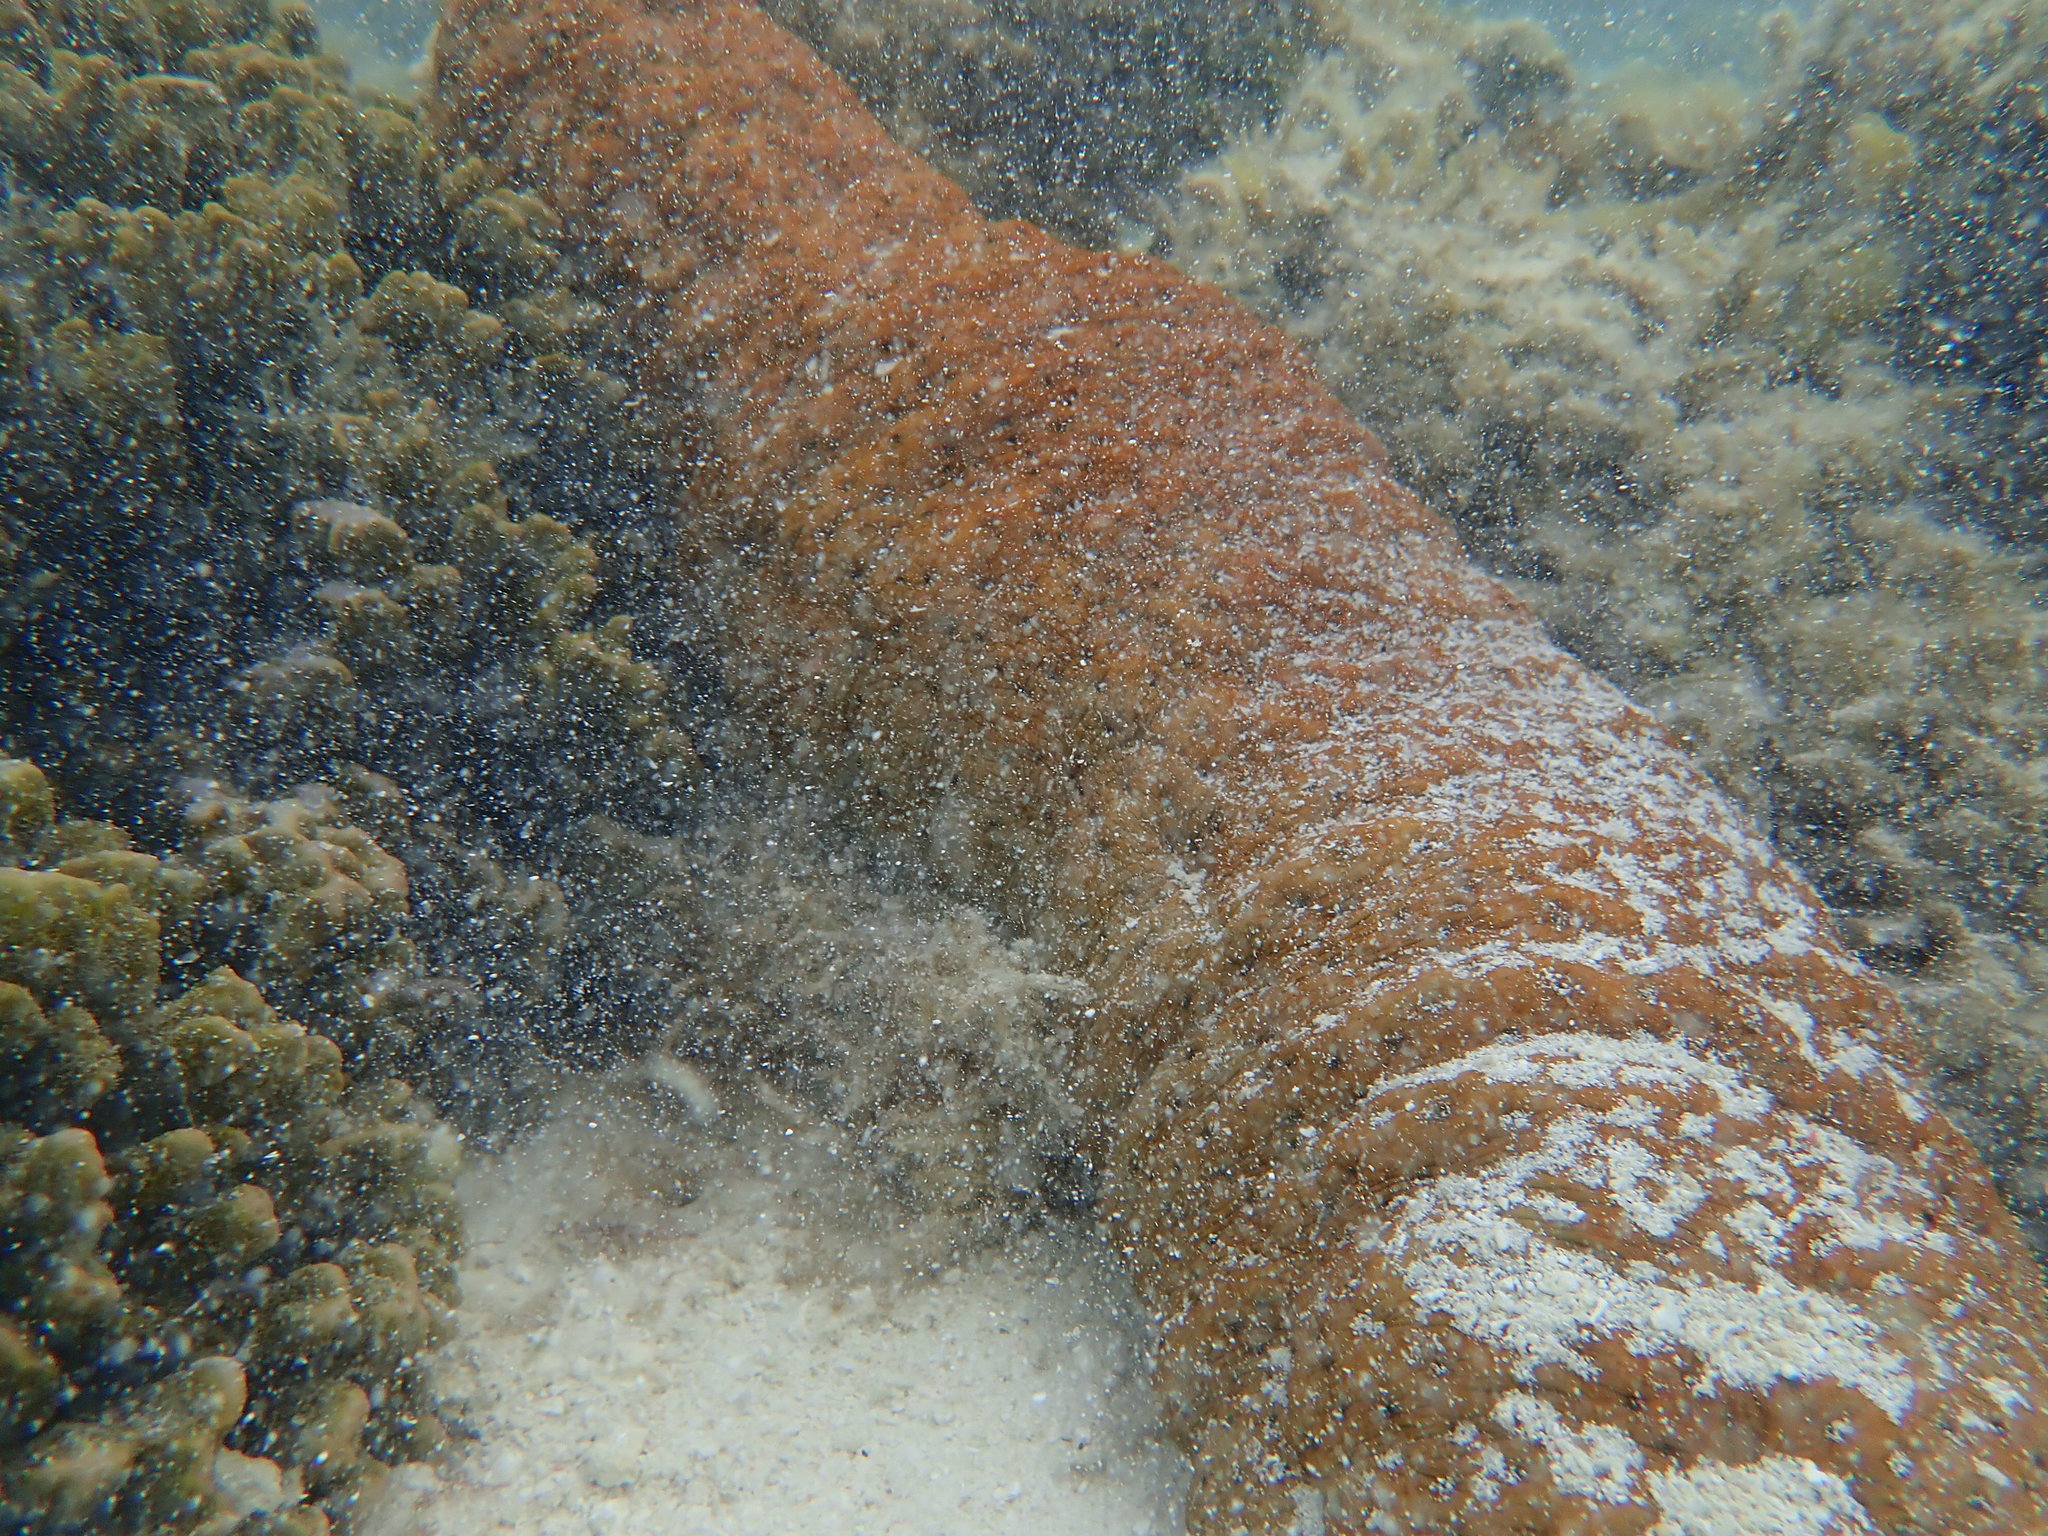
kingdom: Animalia
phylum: Echinodermata
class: Holothuroidea
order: Synallactida
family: Stichopodidae
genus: Stichopus
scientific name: Stichopus herrmanni
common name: Curryfish
